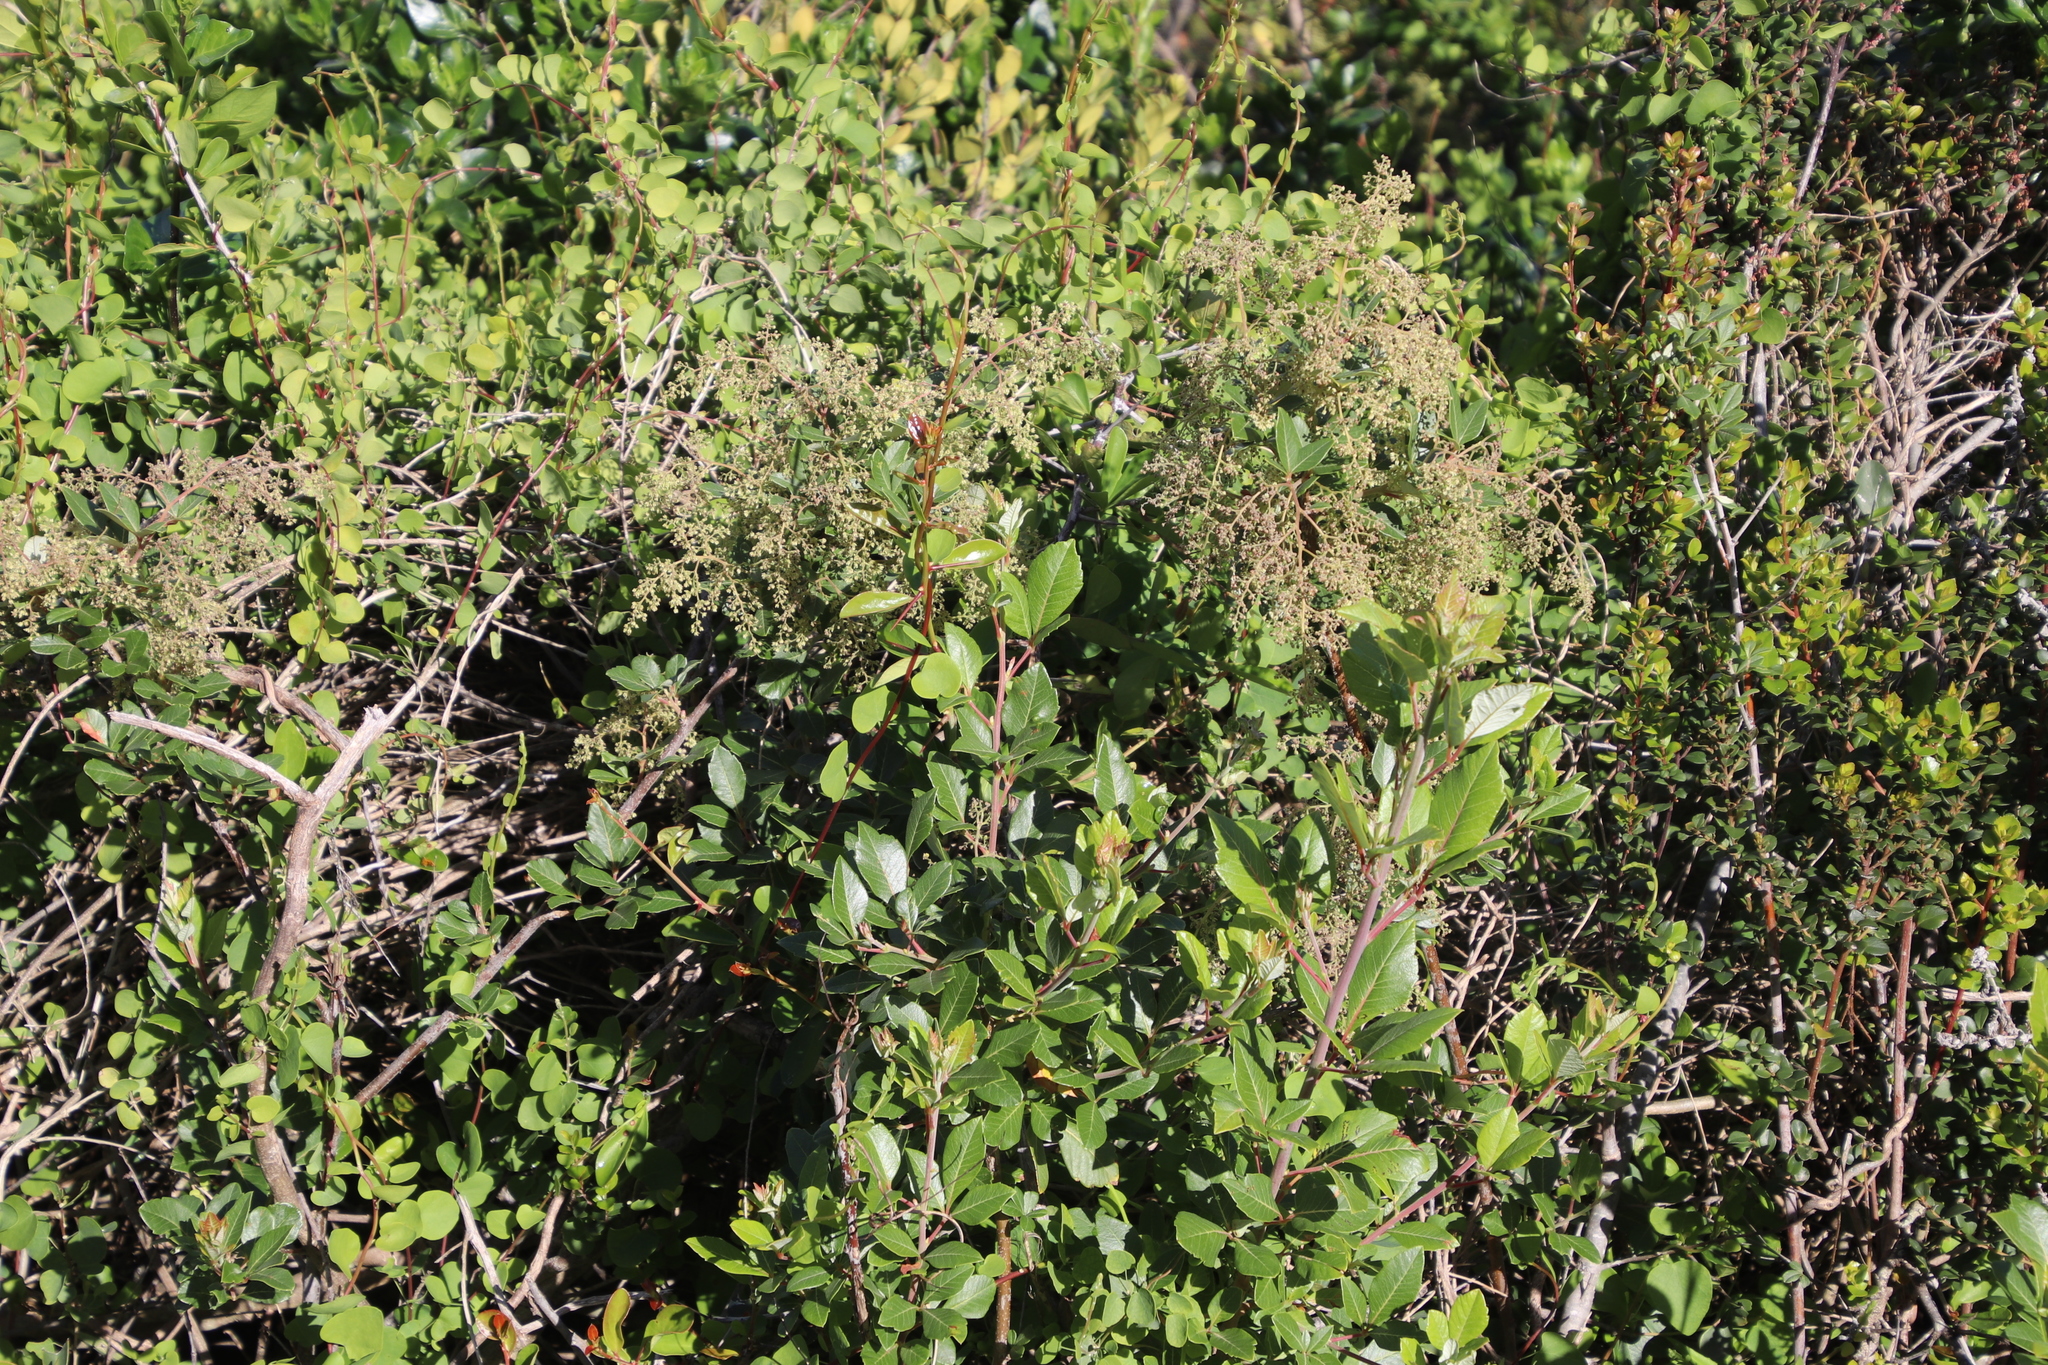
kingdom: Plantae
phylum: Tracheophyta
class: Magnoliopsida
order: Sapindales
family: Anacardiaceae
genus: Searsia
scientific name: Searsia tomentosa
